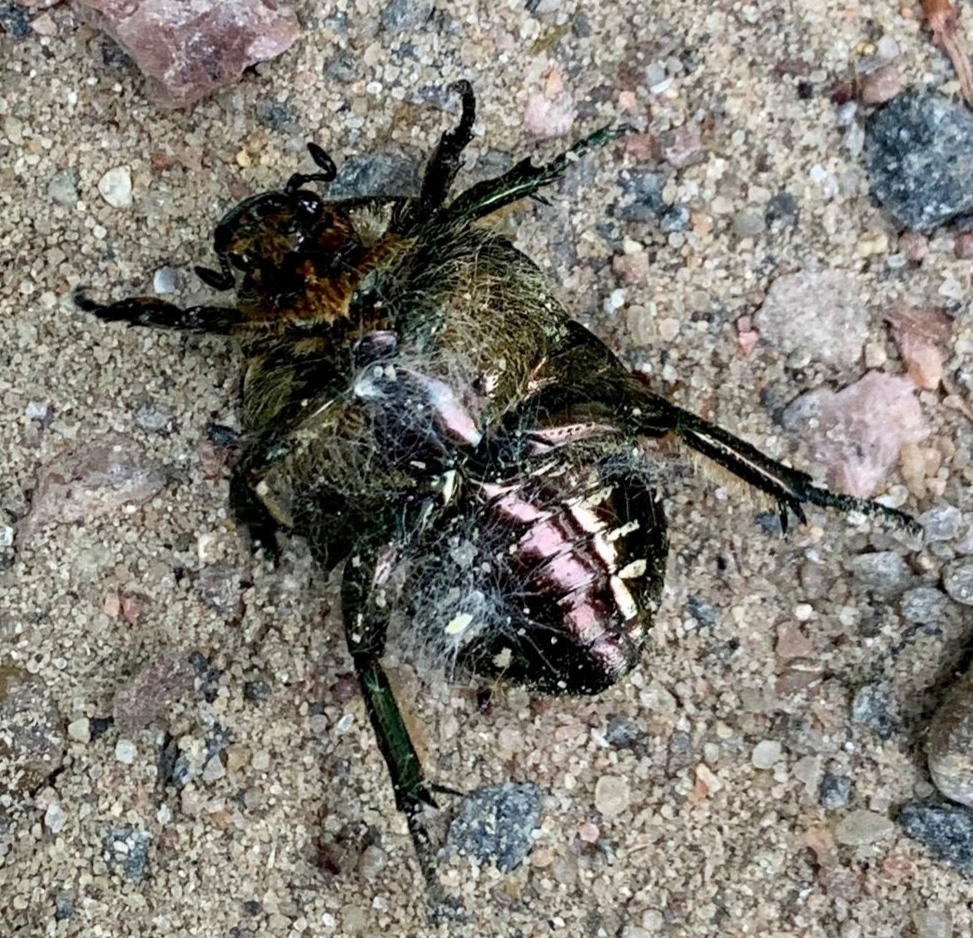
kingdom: Animalia
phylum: Arthropoda
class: Insecta
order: Coleoptera
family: Scarabaeidae
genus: Protaetia
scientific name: Protaetia marmorata
